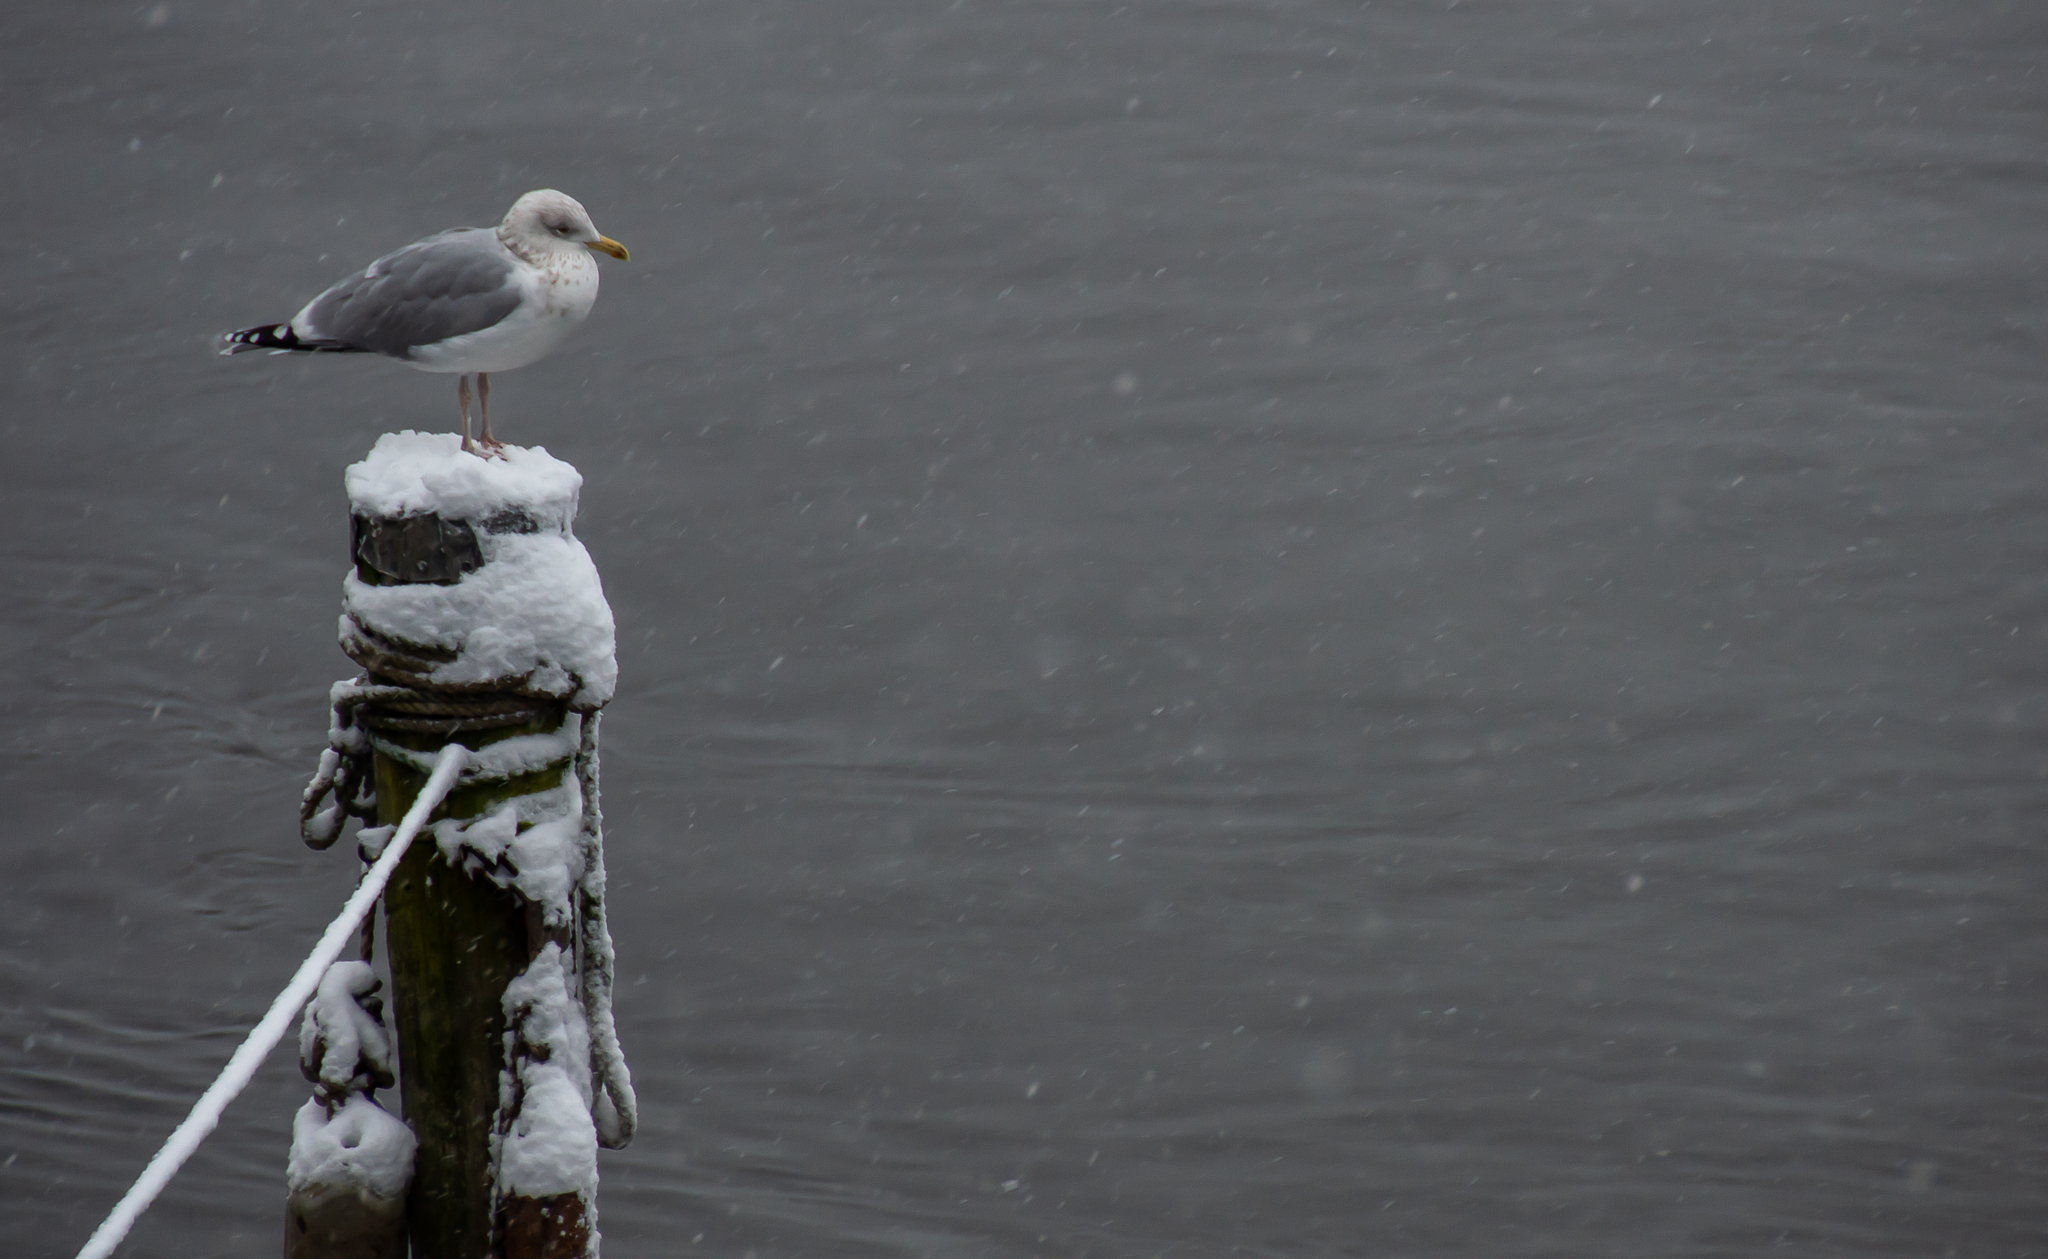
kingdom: Animalia
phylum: Chordata
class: Aves
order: Charadriiformes
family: Laridae
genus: Larus
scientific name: Larus argentatus
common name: Herring gull
